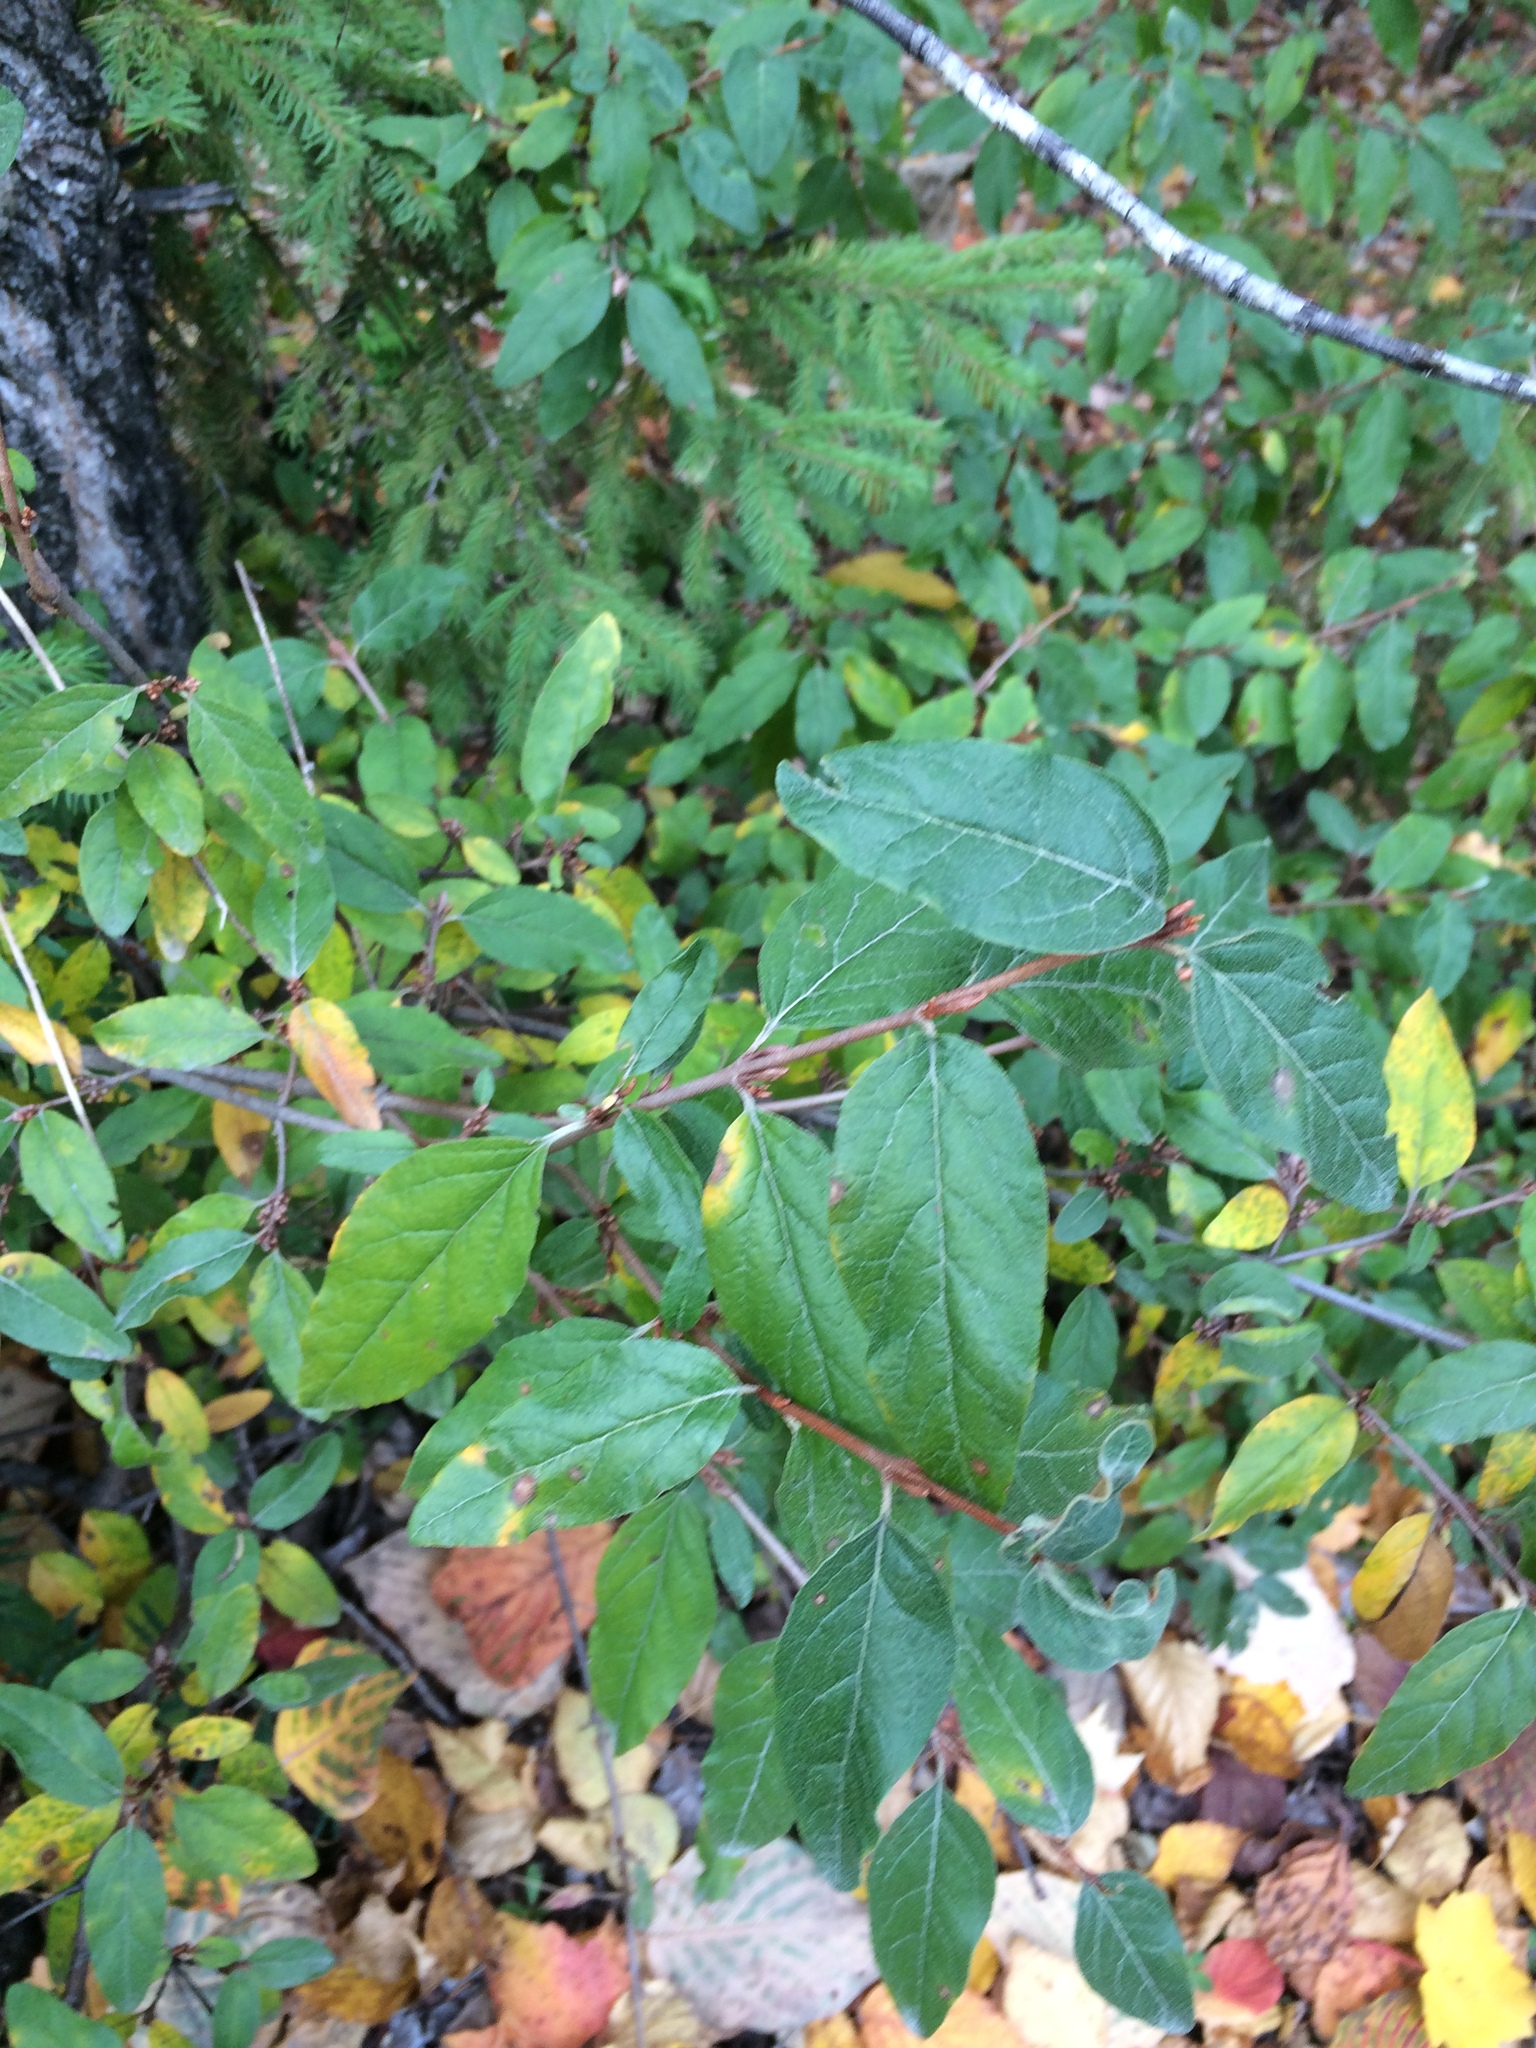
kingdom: Plantae
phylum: Tracheophyta
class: Magnoliopsida
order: Rosales
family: Elaeagnaceae
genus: Shepherdia
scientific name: Shepherdia canadensis
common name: Soapberry
